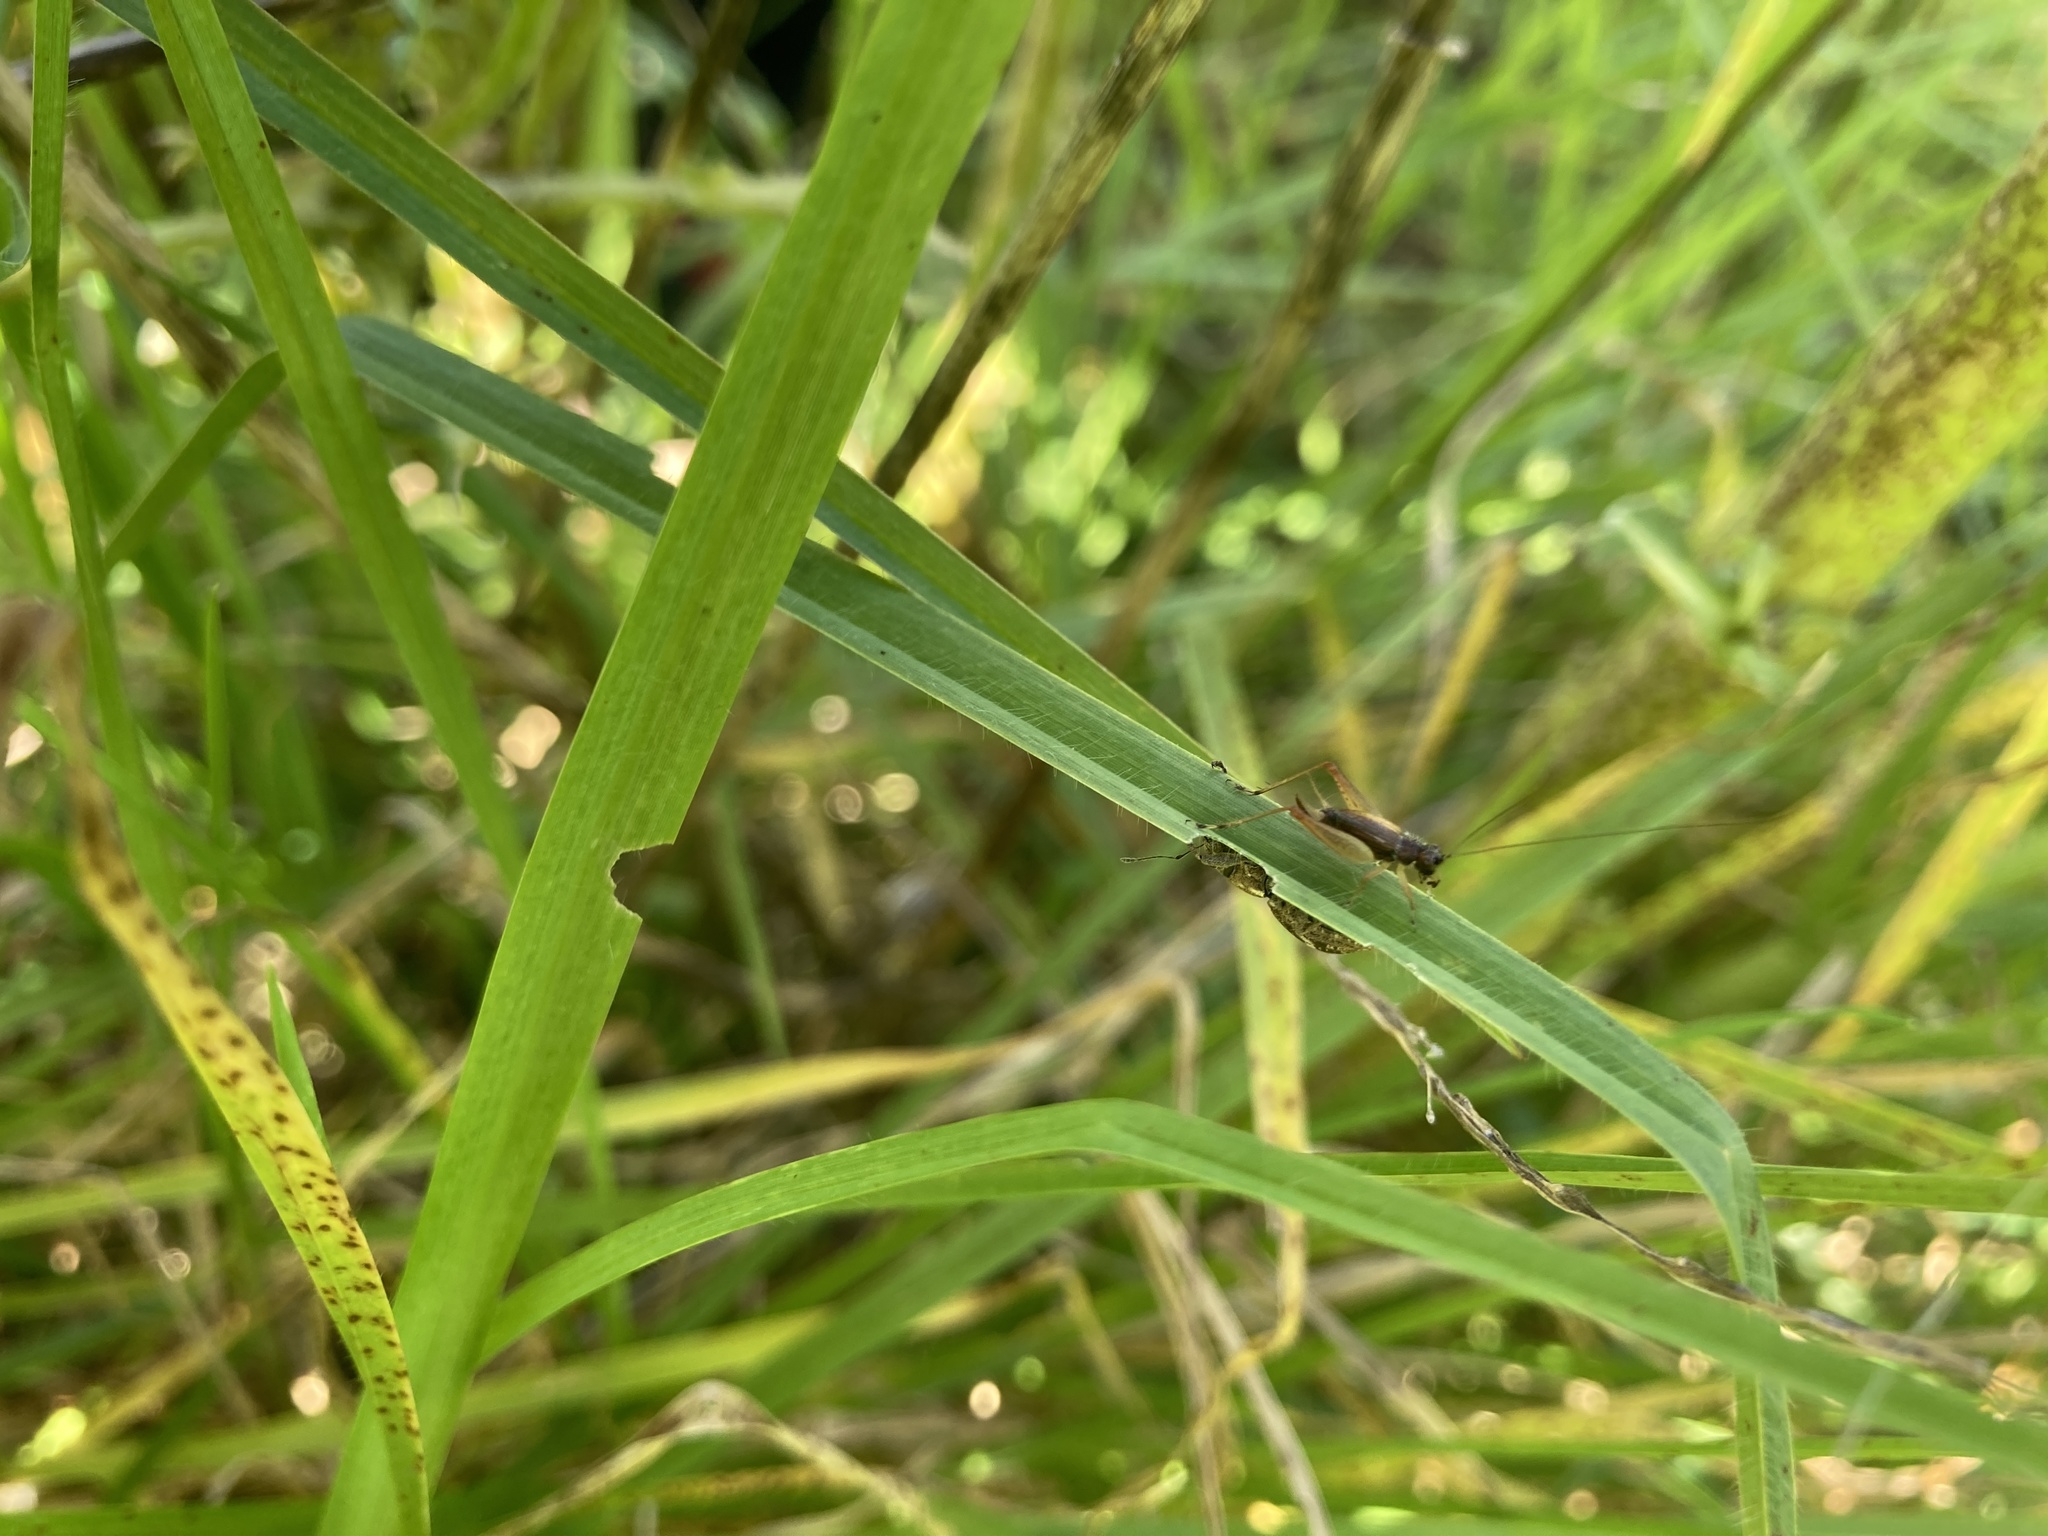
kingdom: Animalia
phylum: Arthropoda
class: Insecta
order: Orthoptera
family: Trigonidiidae
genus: Metioche
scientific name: Metioche maorica
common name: New zealand trig
